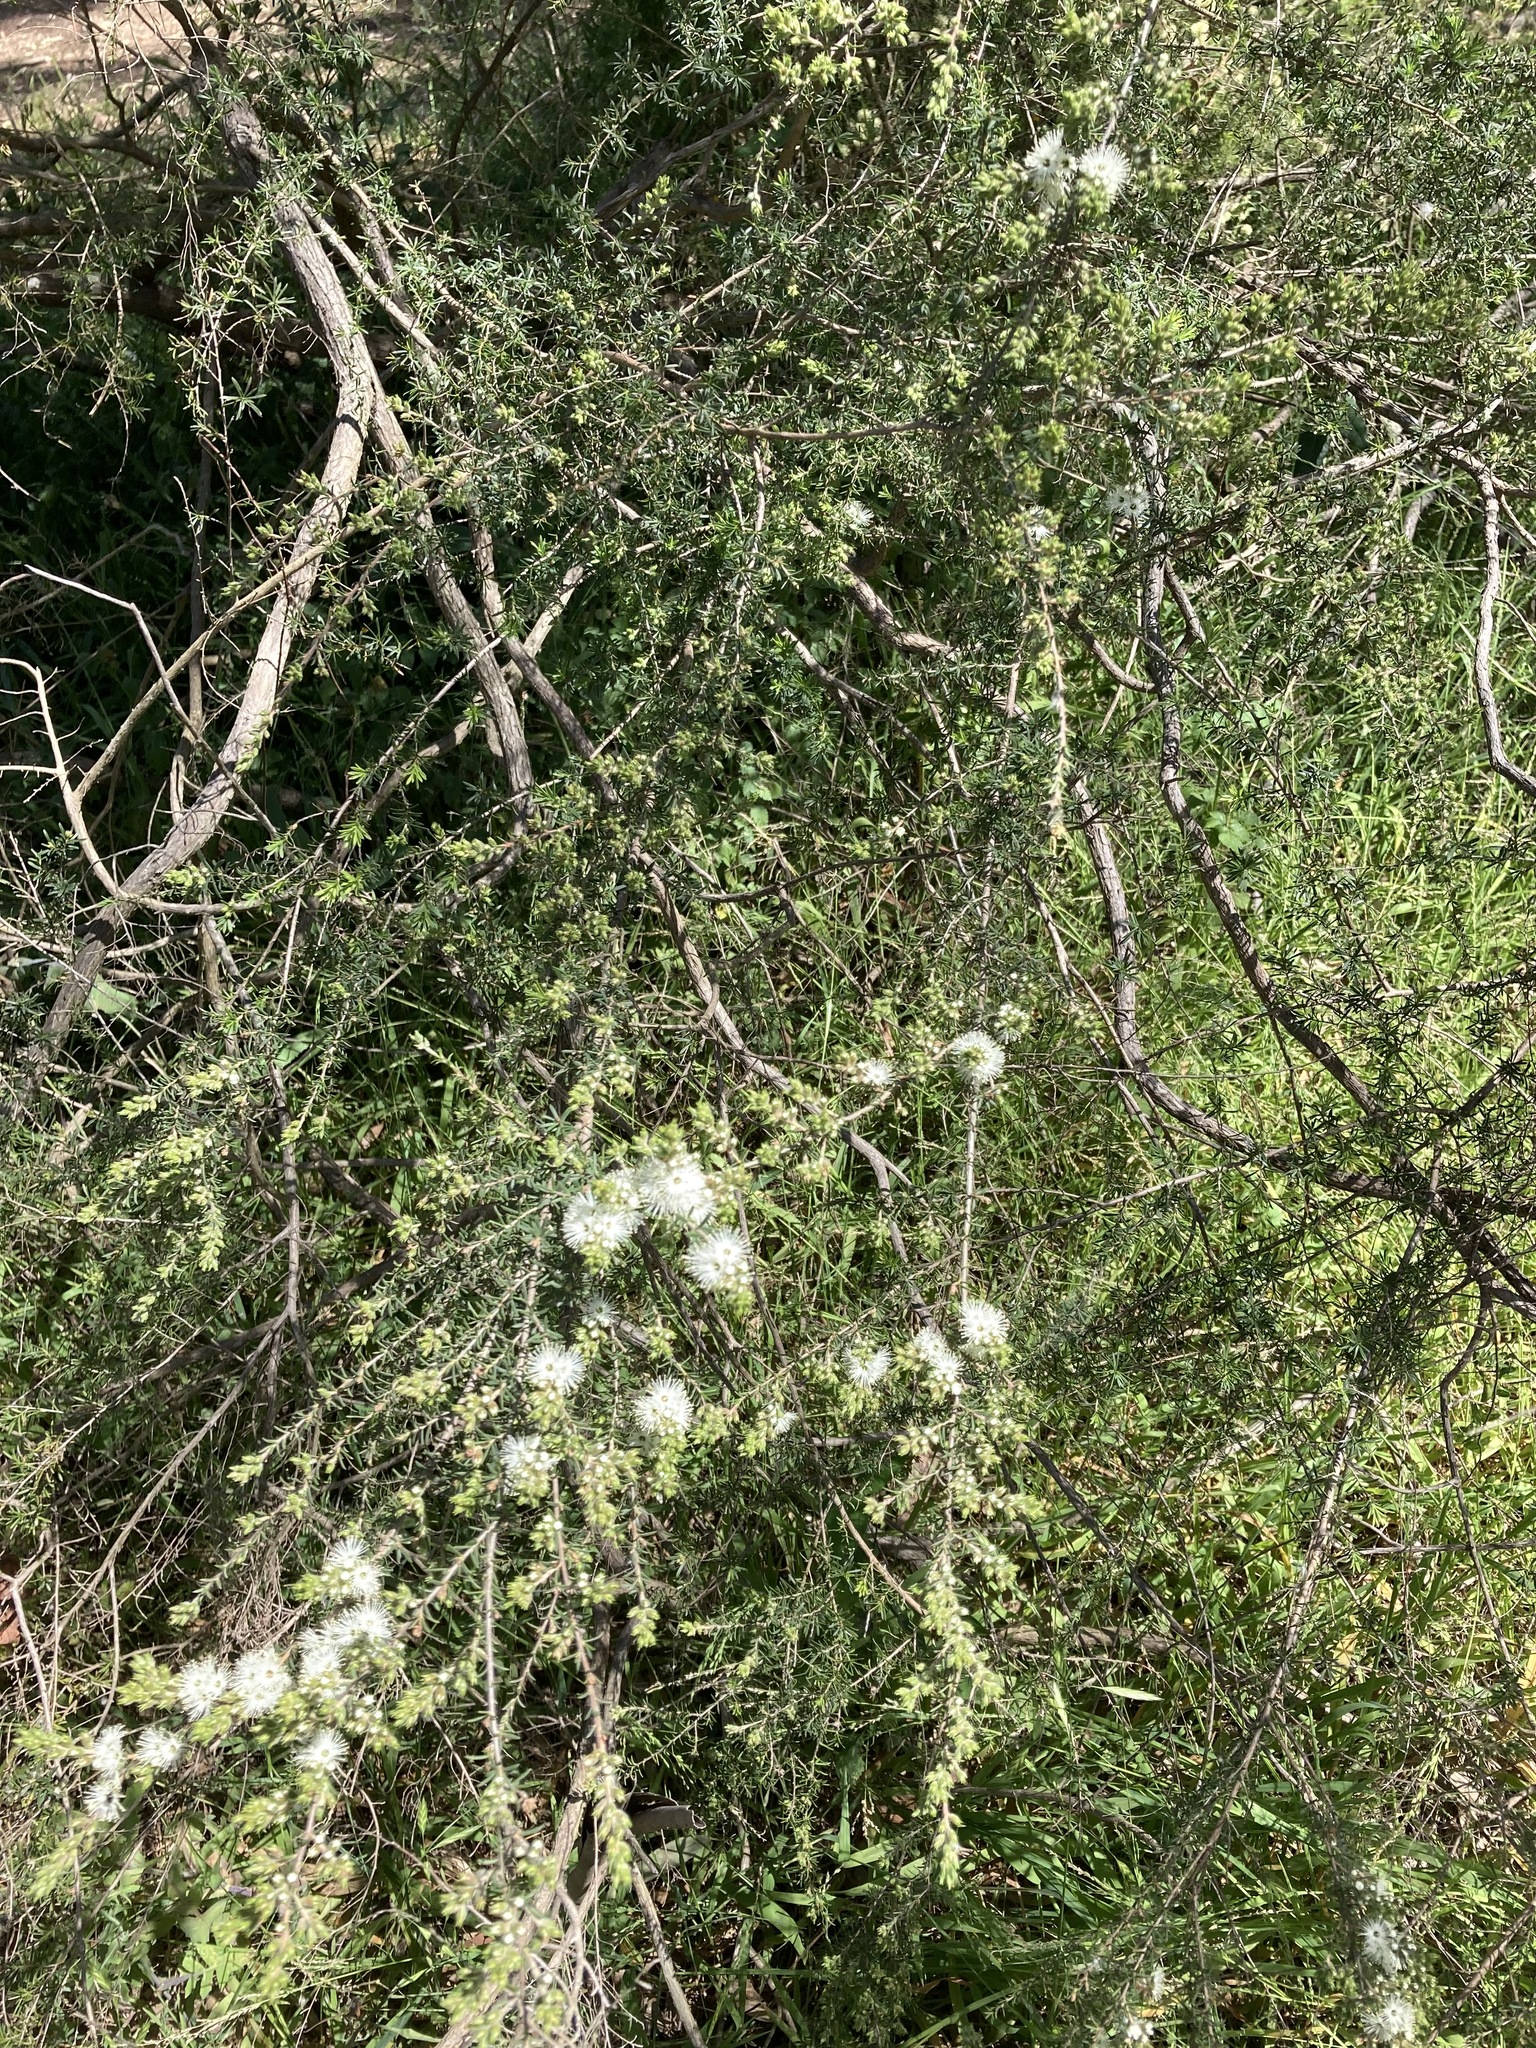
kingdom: Plantae
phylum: Tracheophyta
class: Magnoliopsida
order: Myrtales
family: Myrtaceae
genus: Kunzea
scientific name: Kunzea ambigua
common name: Tickbush
